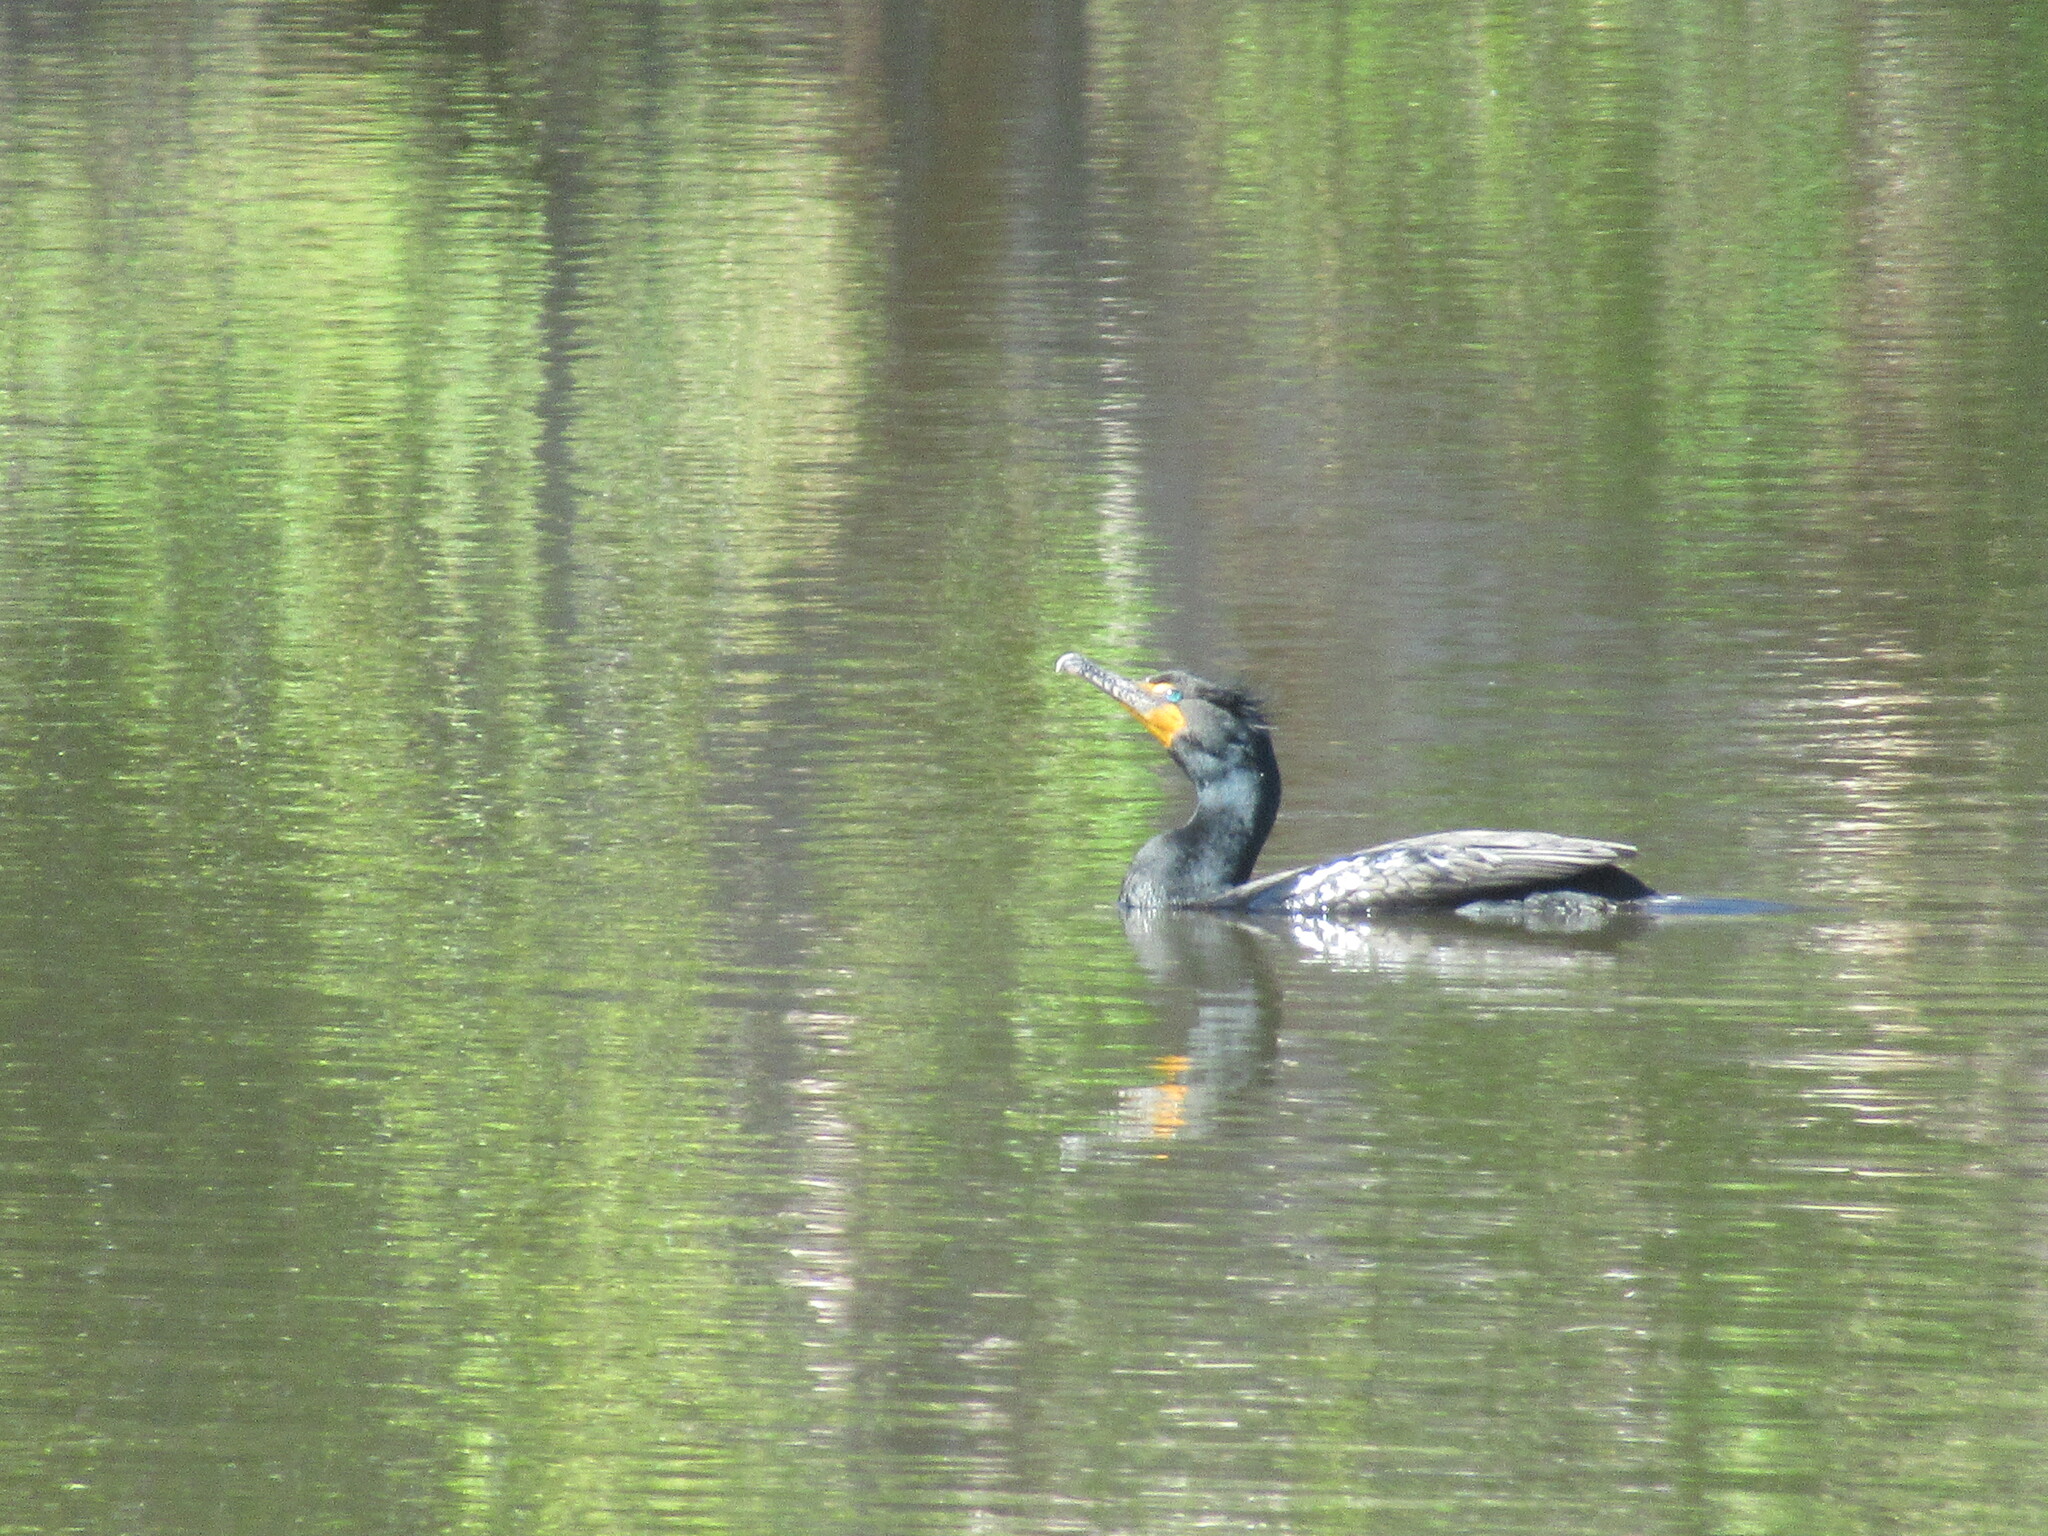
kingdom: Animalia
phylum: Chordata
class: Aves
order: Suliformes
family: Phalacrocoracidae
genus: Phalacrocorax
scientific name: Phalacrocorax auritus
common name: Double-crested cormorant
